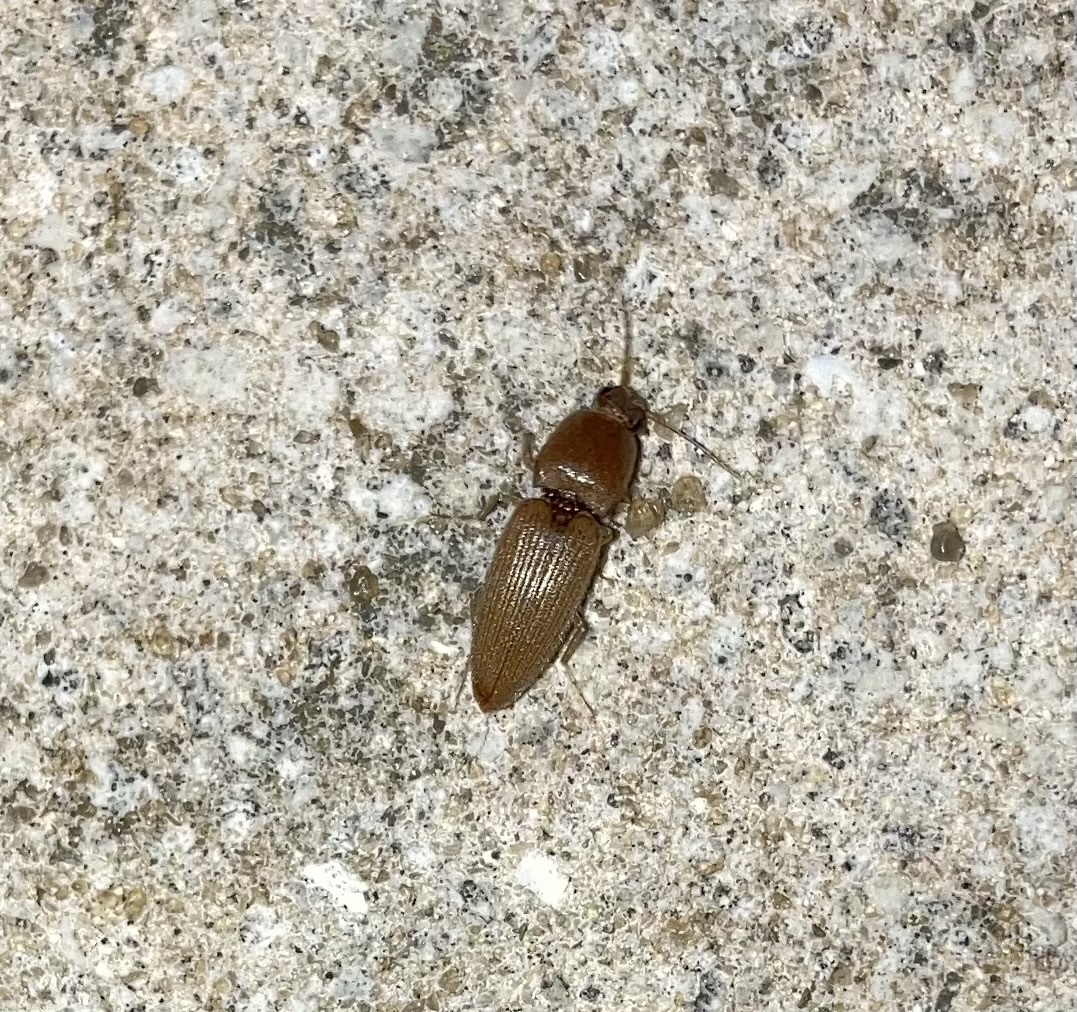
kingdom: Animalia
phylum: Arthropoda
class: Insecta
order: Coleoptera
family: Elateridae
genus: Monocrepidius
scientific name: Monocrepidius scissus
